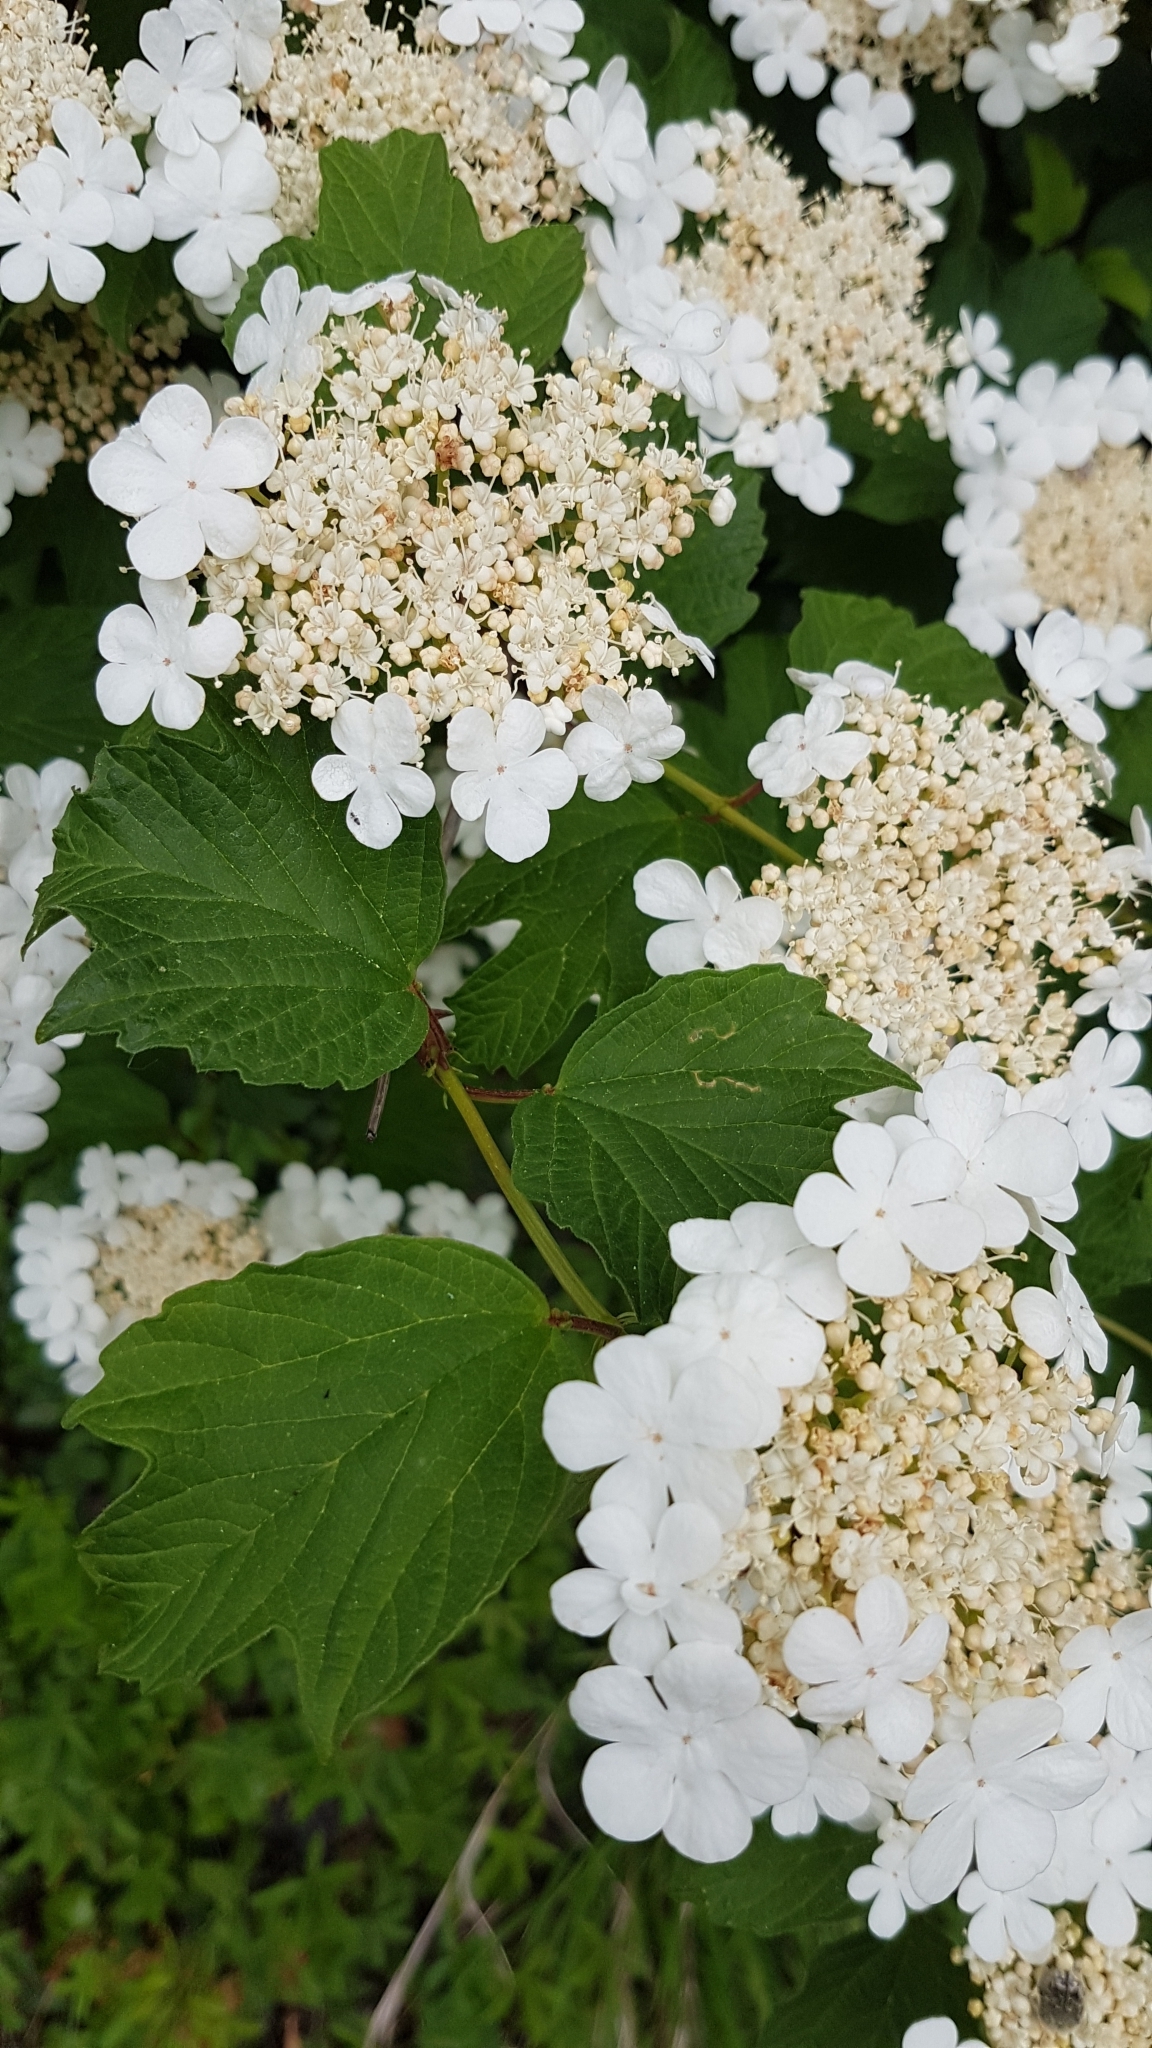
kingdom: Plantae
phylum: Tracheophyta
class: Magnoliopsida
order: Dipsacales
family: Viburnaceae
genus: Viburnum
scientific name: Viburnum opulus
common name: Guelder-rose
